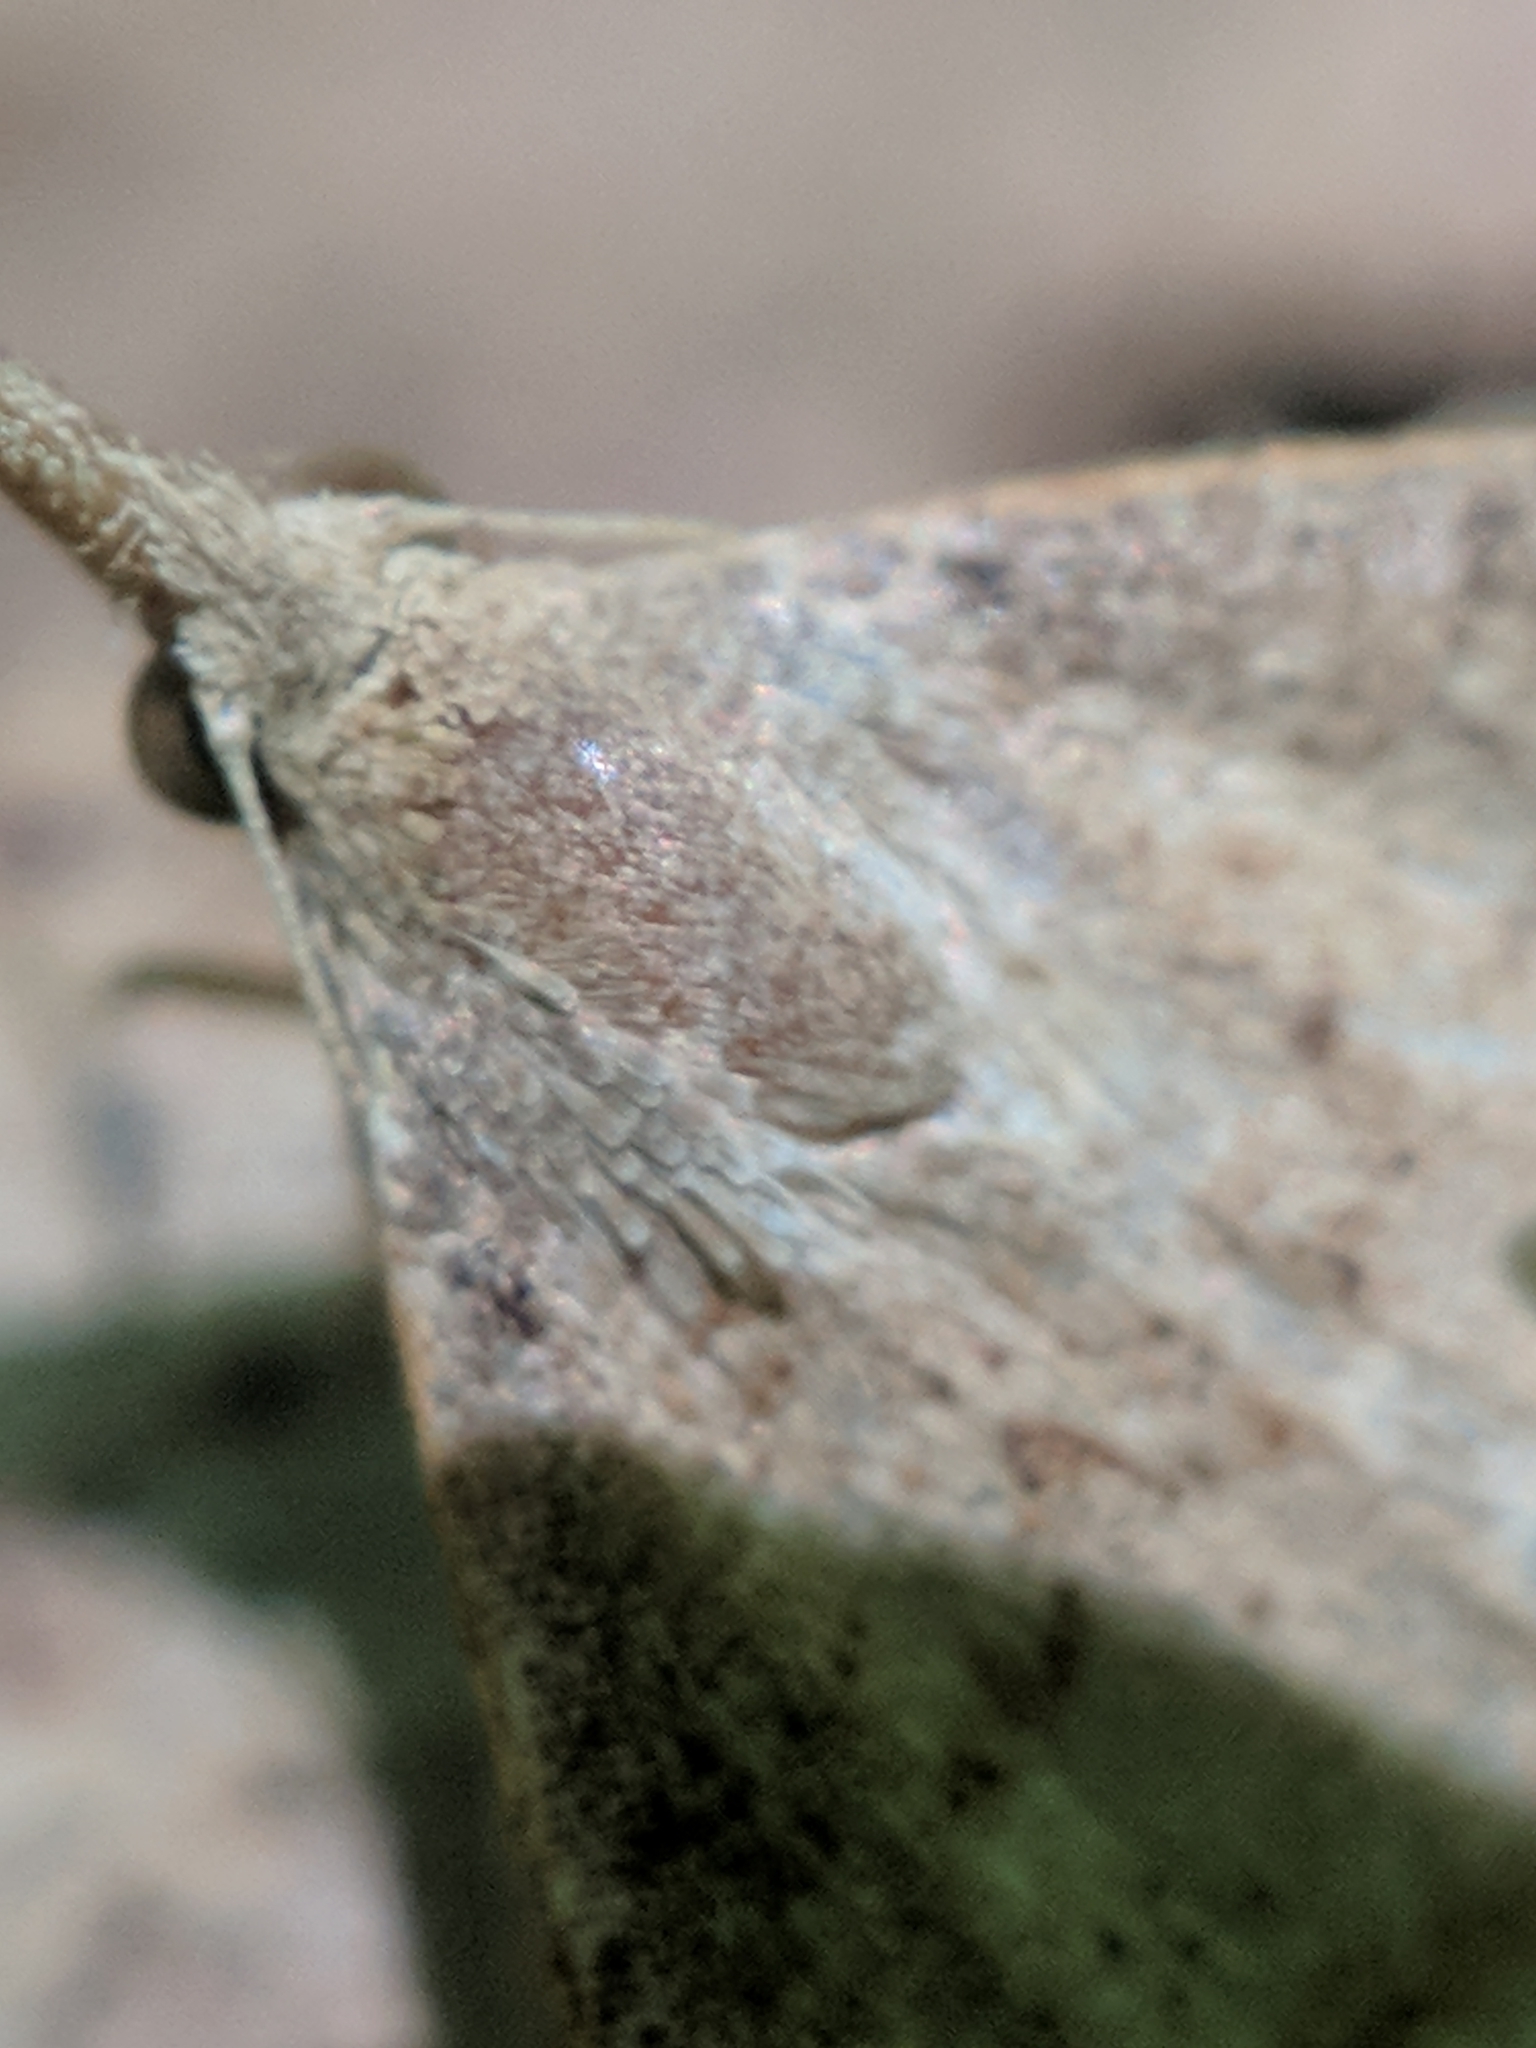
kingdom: Animalia
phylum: Arthropoda
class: Insecta
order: Lepidoptera
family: Erebidae
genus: Renia
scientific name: Renia adspergillus
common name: Speckled renia moth
